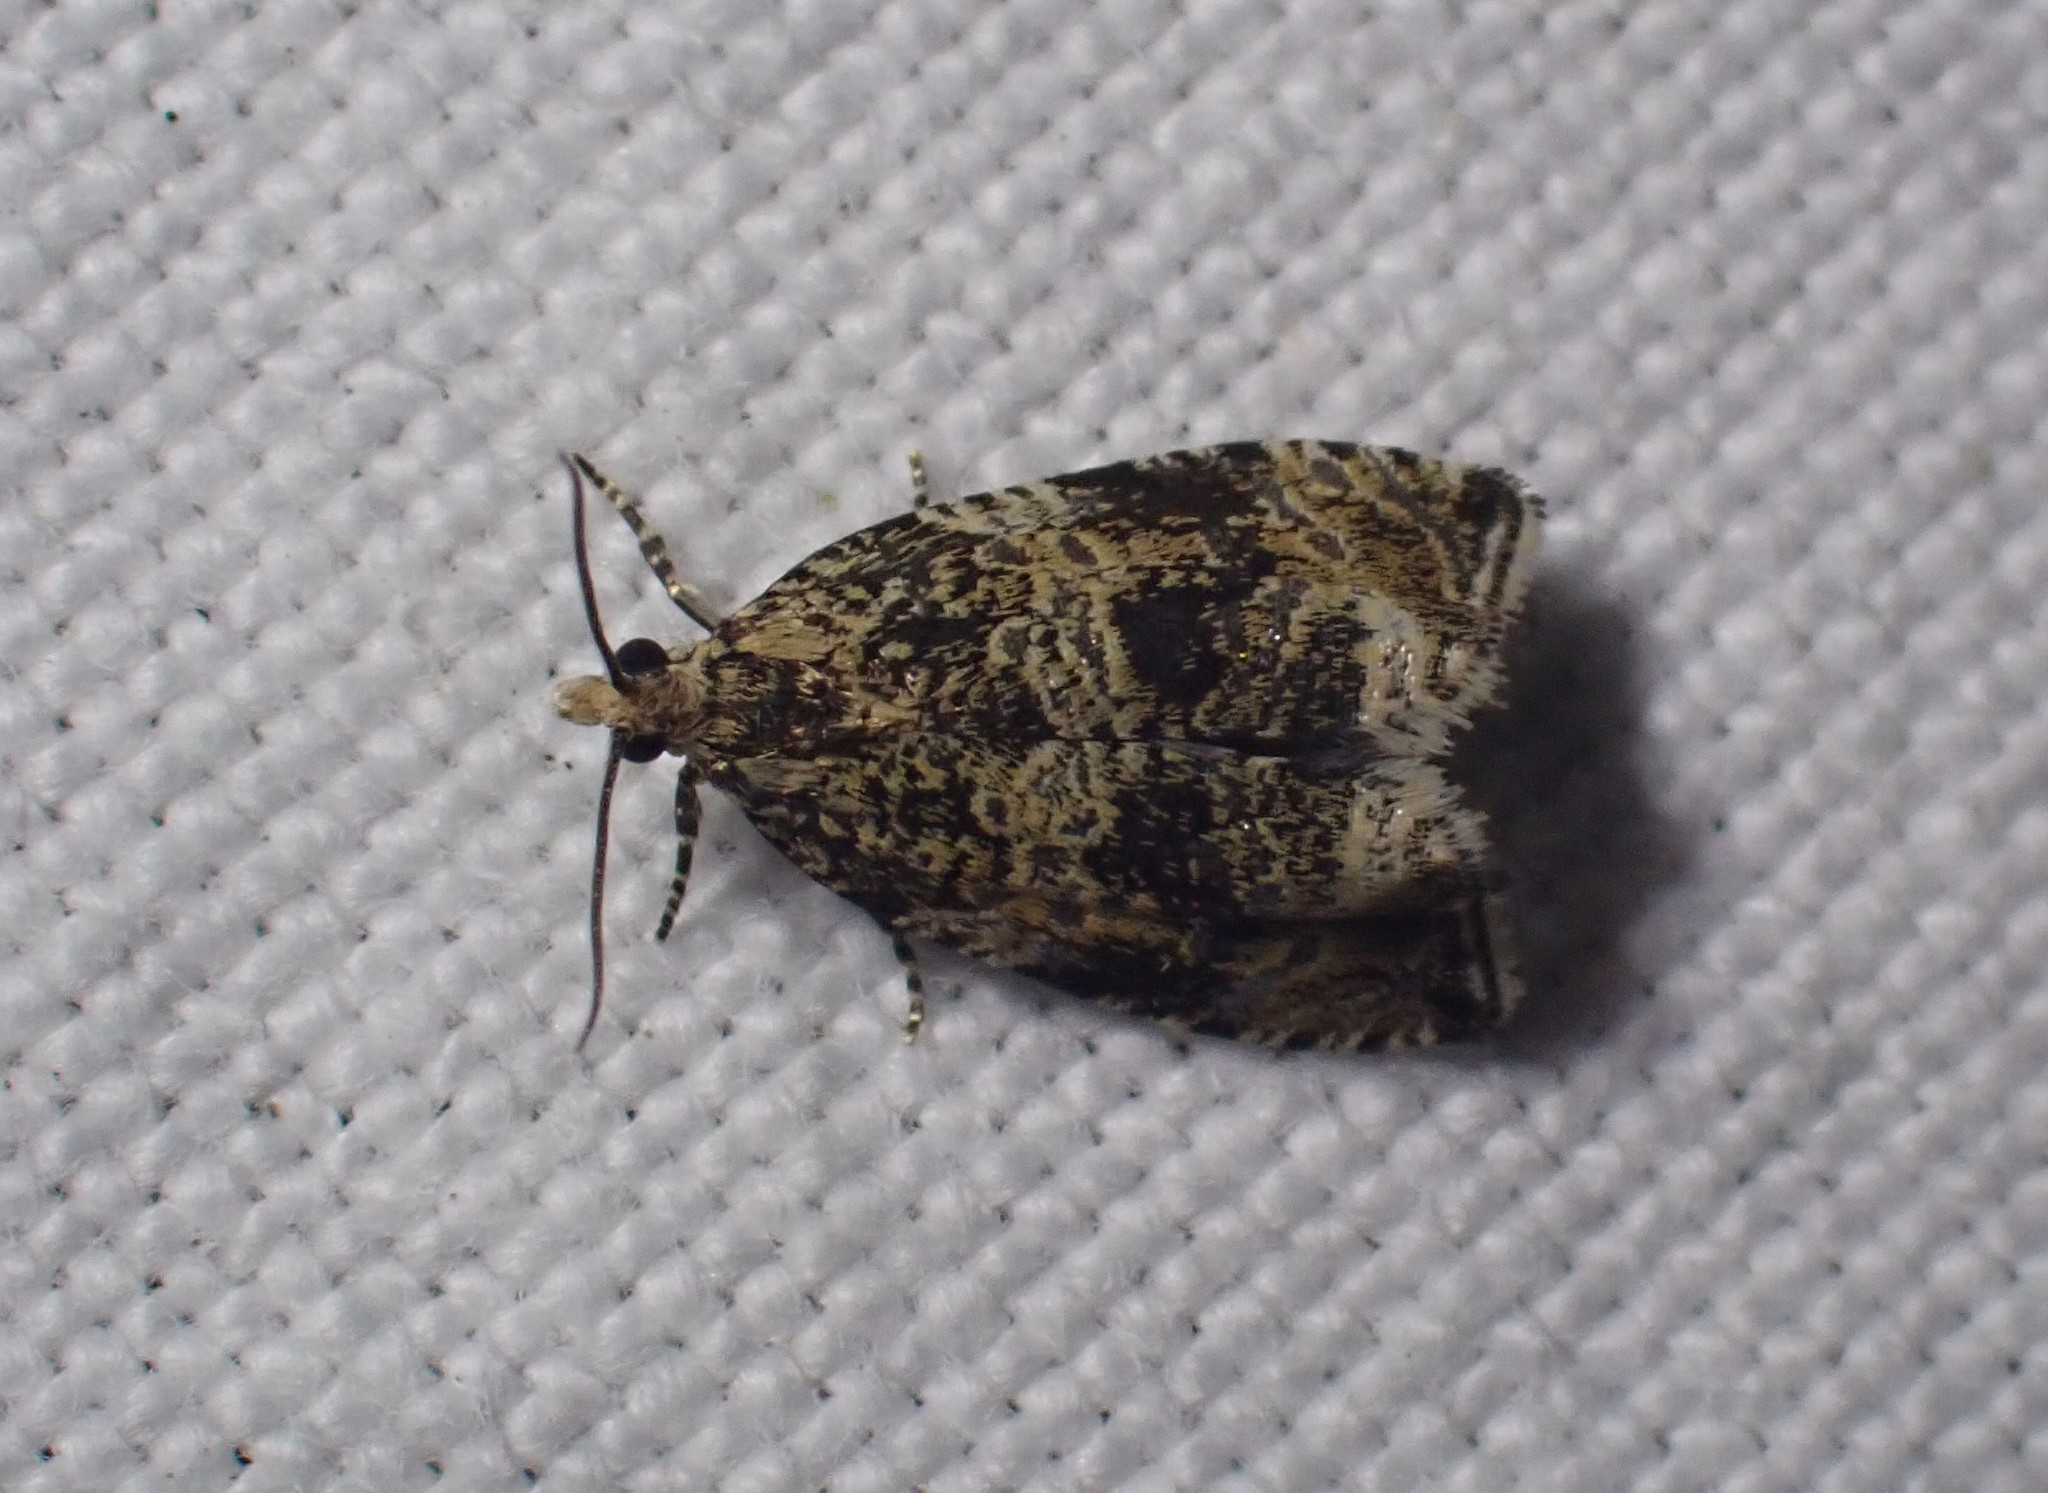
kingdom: Animalia
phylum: Arthropoda
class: Insecta
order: Lepidoptera
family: Tortricidae
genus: Syricoris
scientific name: Syricoris lacunana
